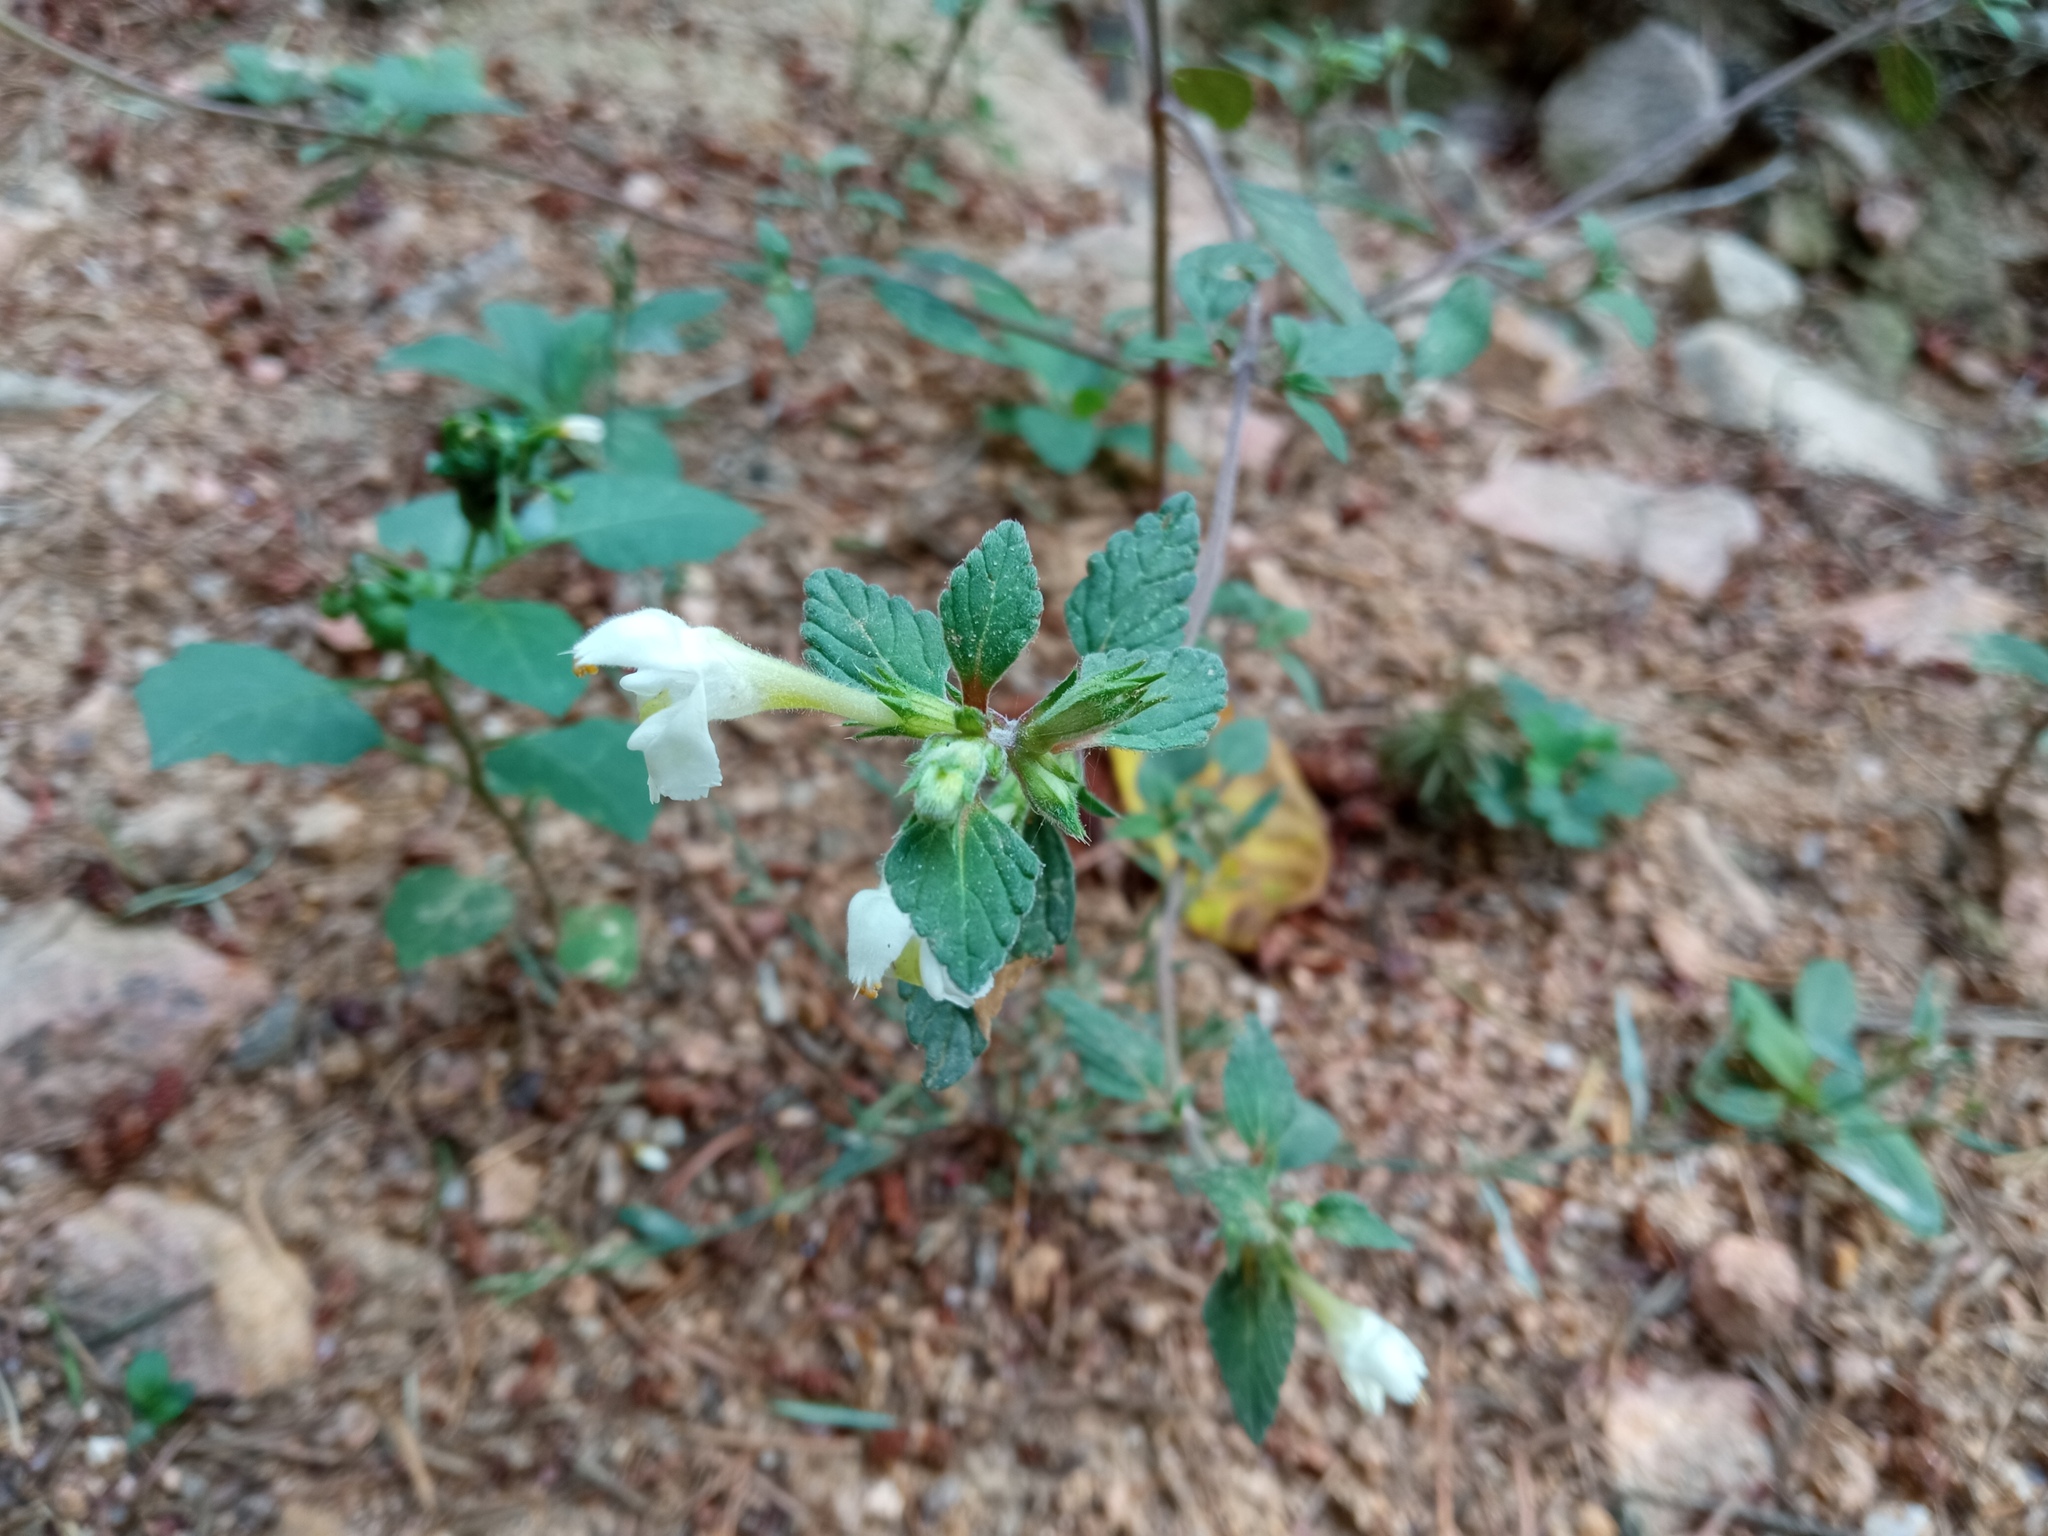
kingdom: Plantae
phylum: Tracheophyta
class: Magnoliopsida
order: Lamiales
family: Lamiaceae
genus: Galeopsis
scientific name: Galeopsis segetum
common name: Downy hemp-nettle
